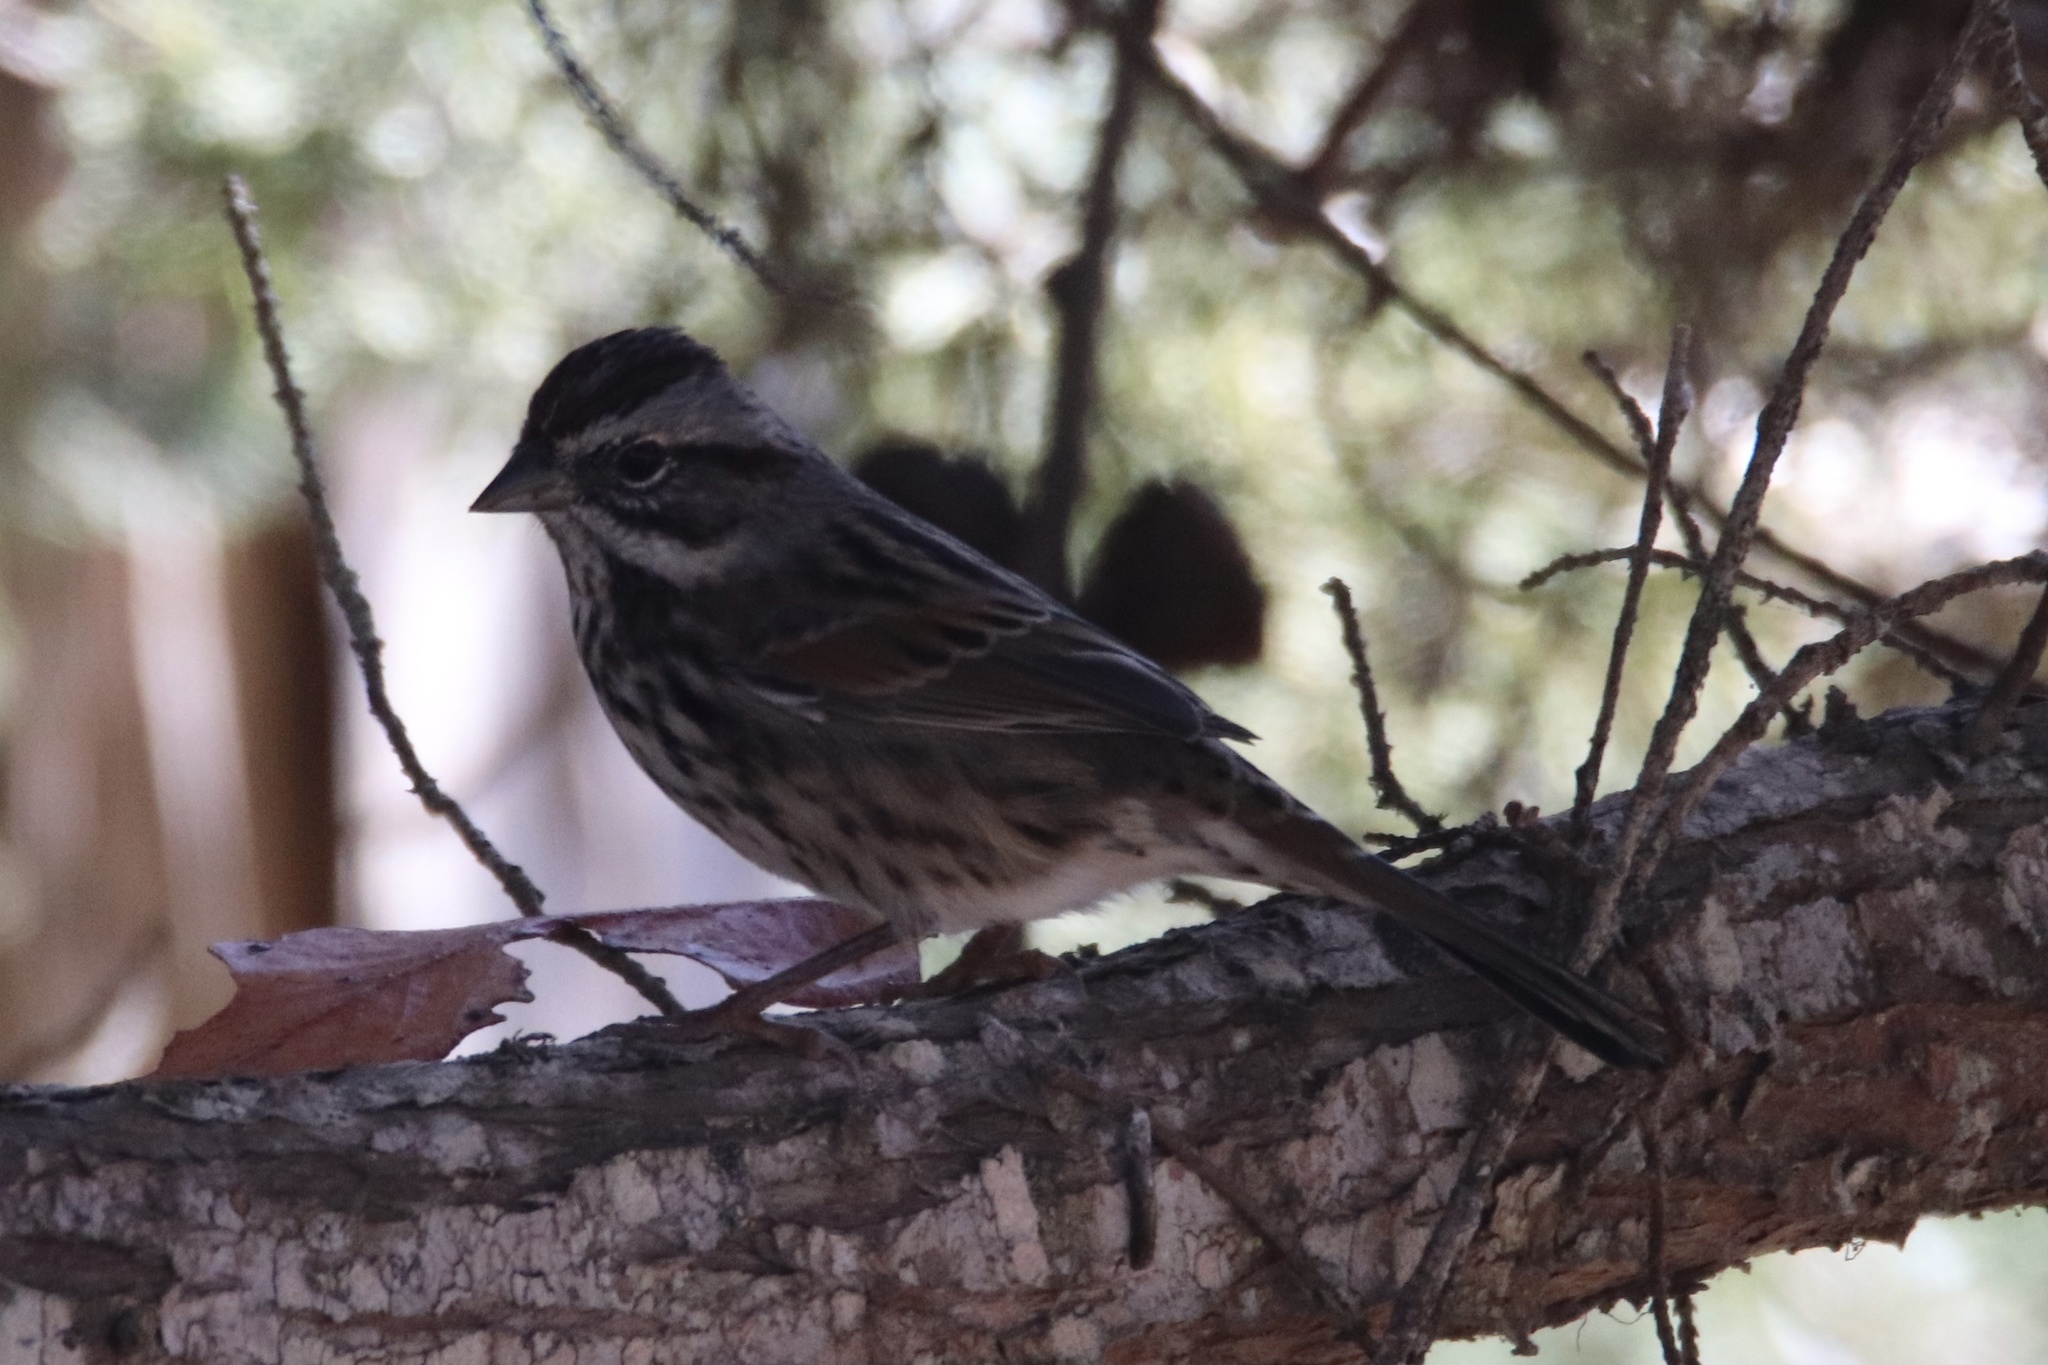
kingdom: Animalia
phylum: Chordata
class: Aves
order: Passeriformes
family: Passerellidae
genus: Melospiza
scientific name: Melospiza melodia
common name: Song sparrow
